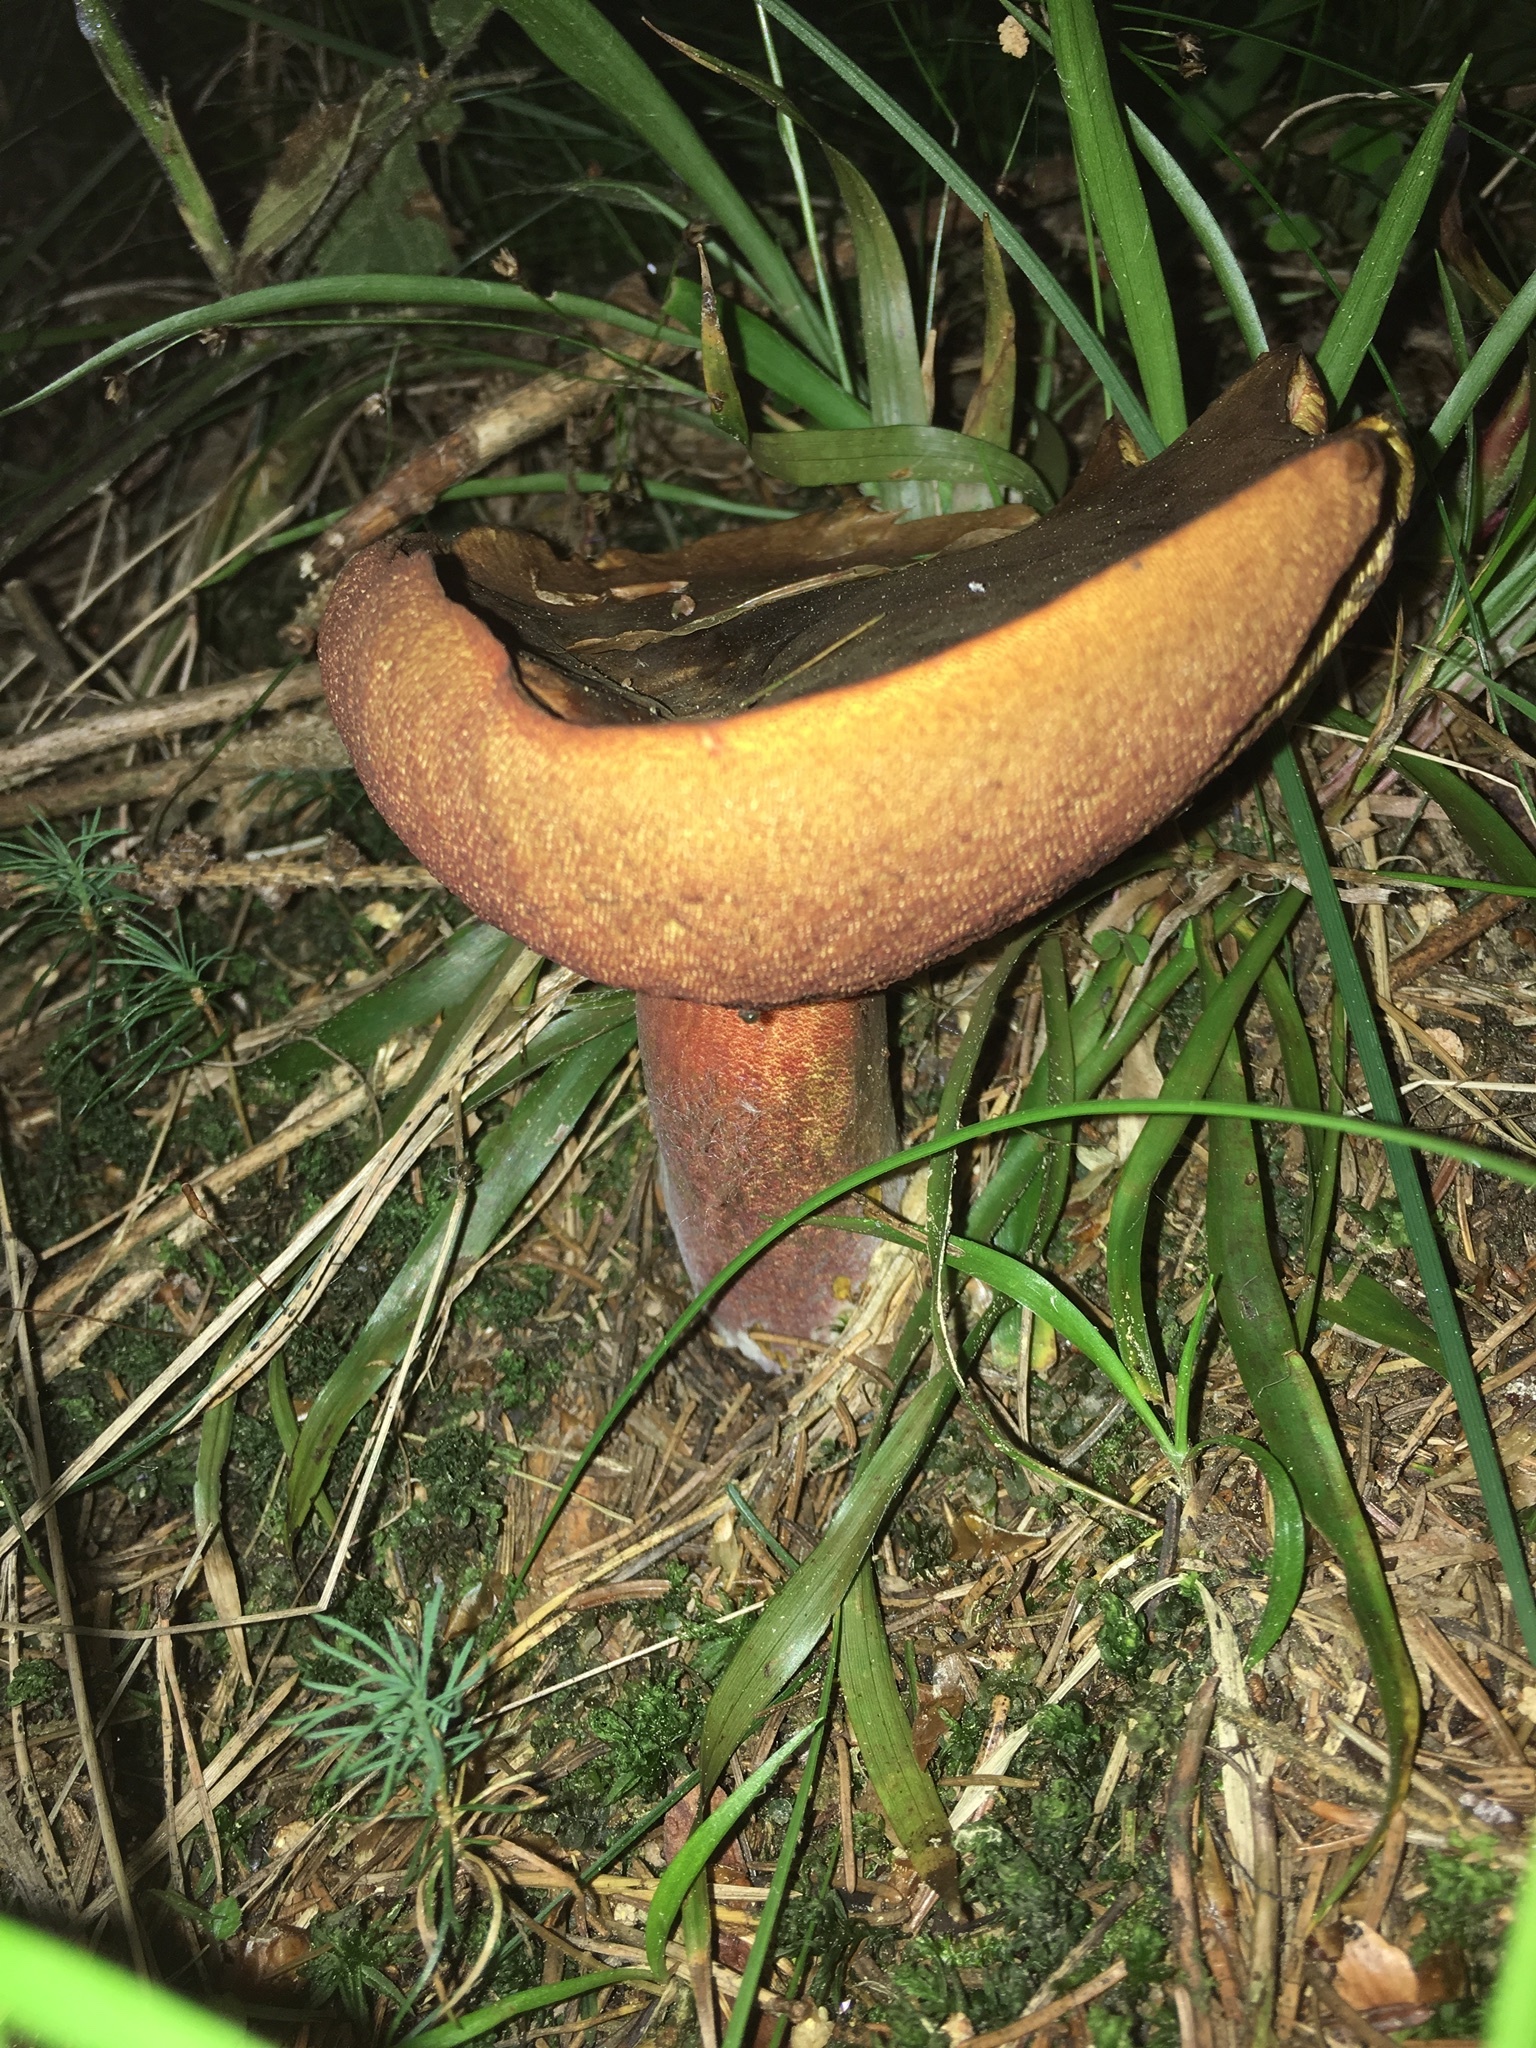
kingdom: Fungi
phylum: Basidiomycota
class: Agaricomycetes
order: Boletales
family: Boletaceae
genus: Neoboletus
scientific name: Neoboletus erythropus
